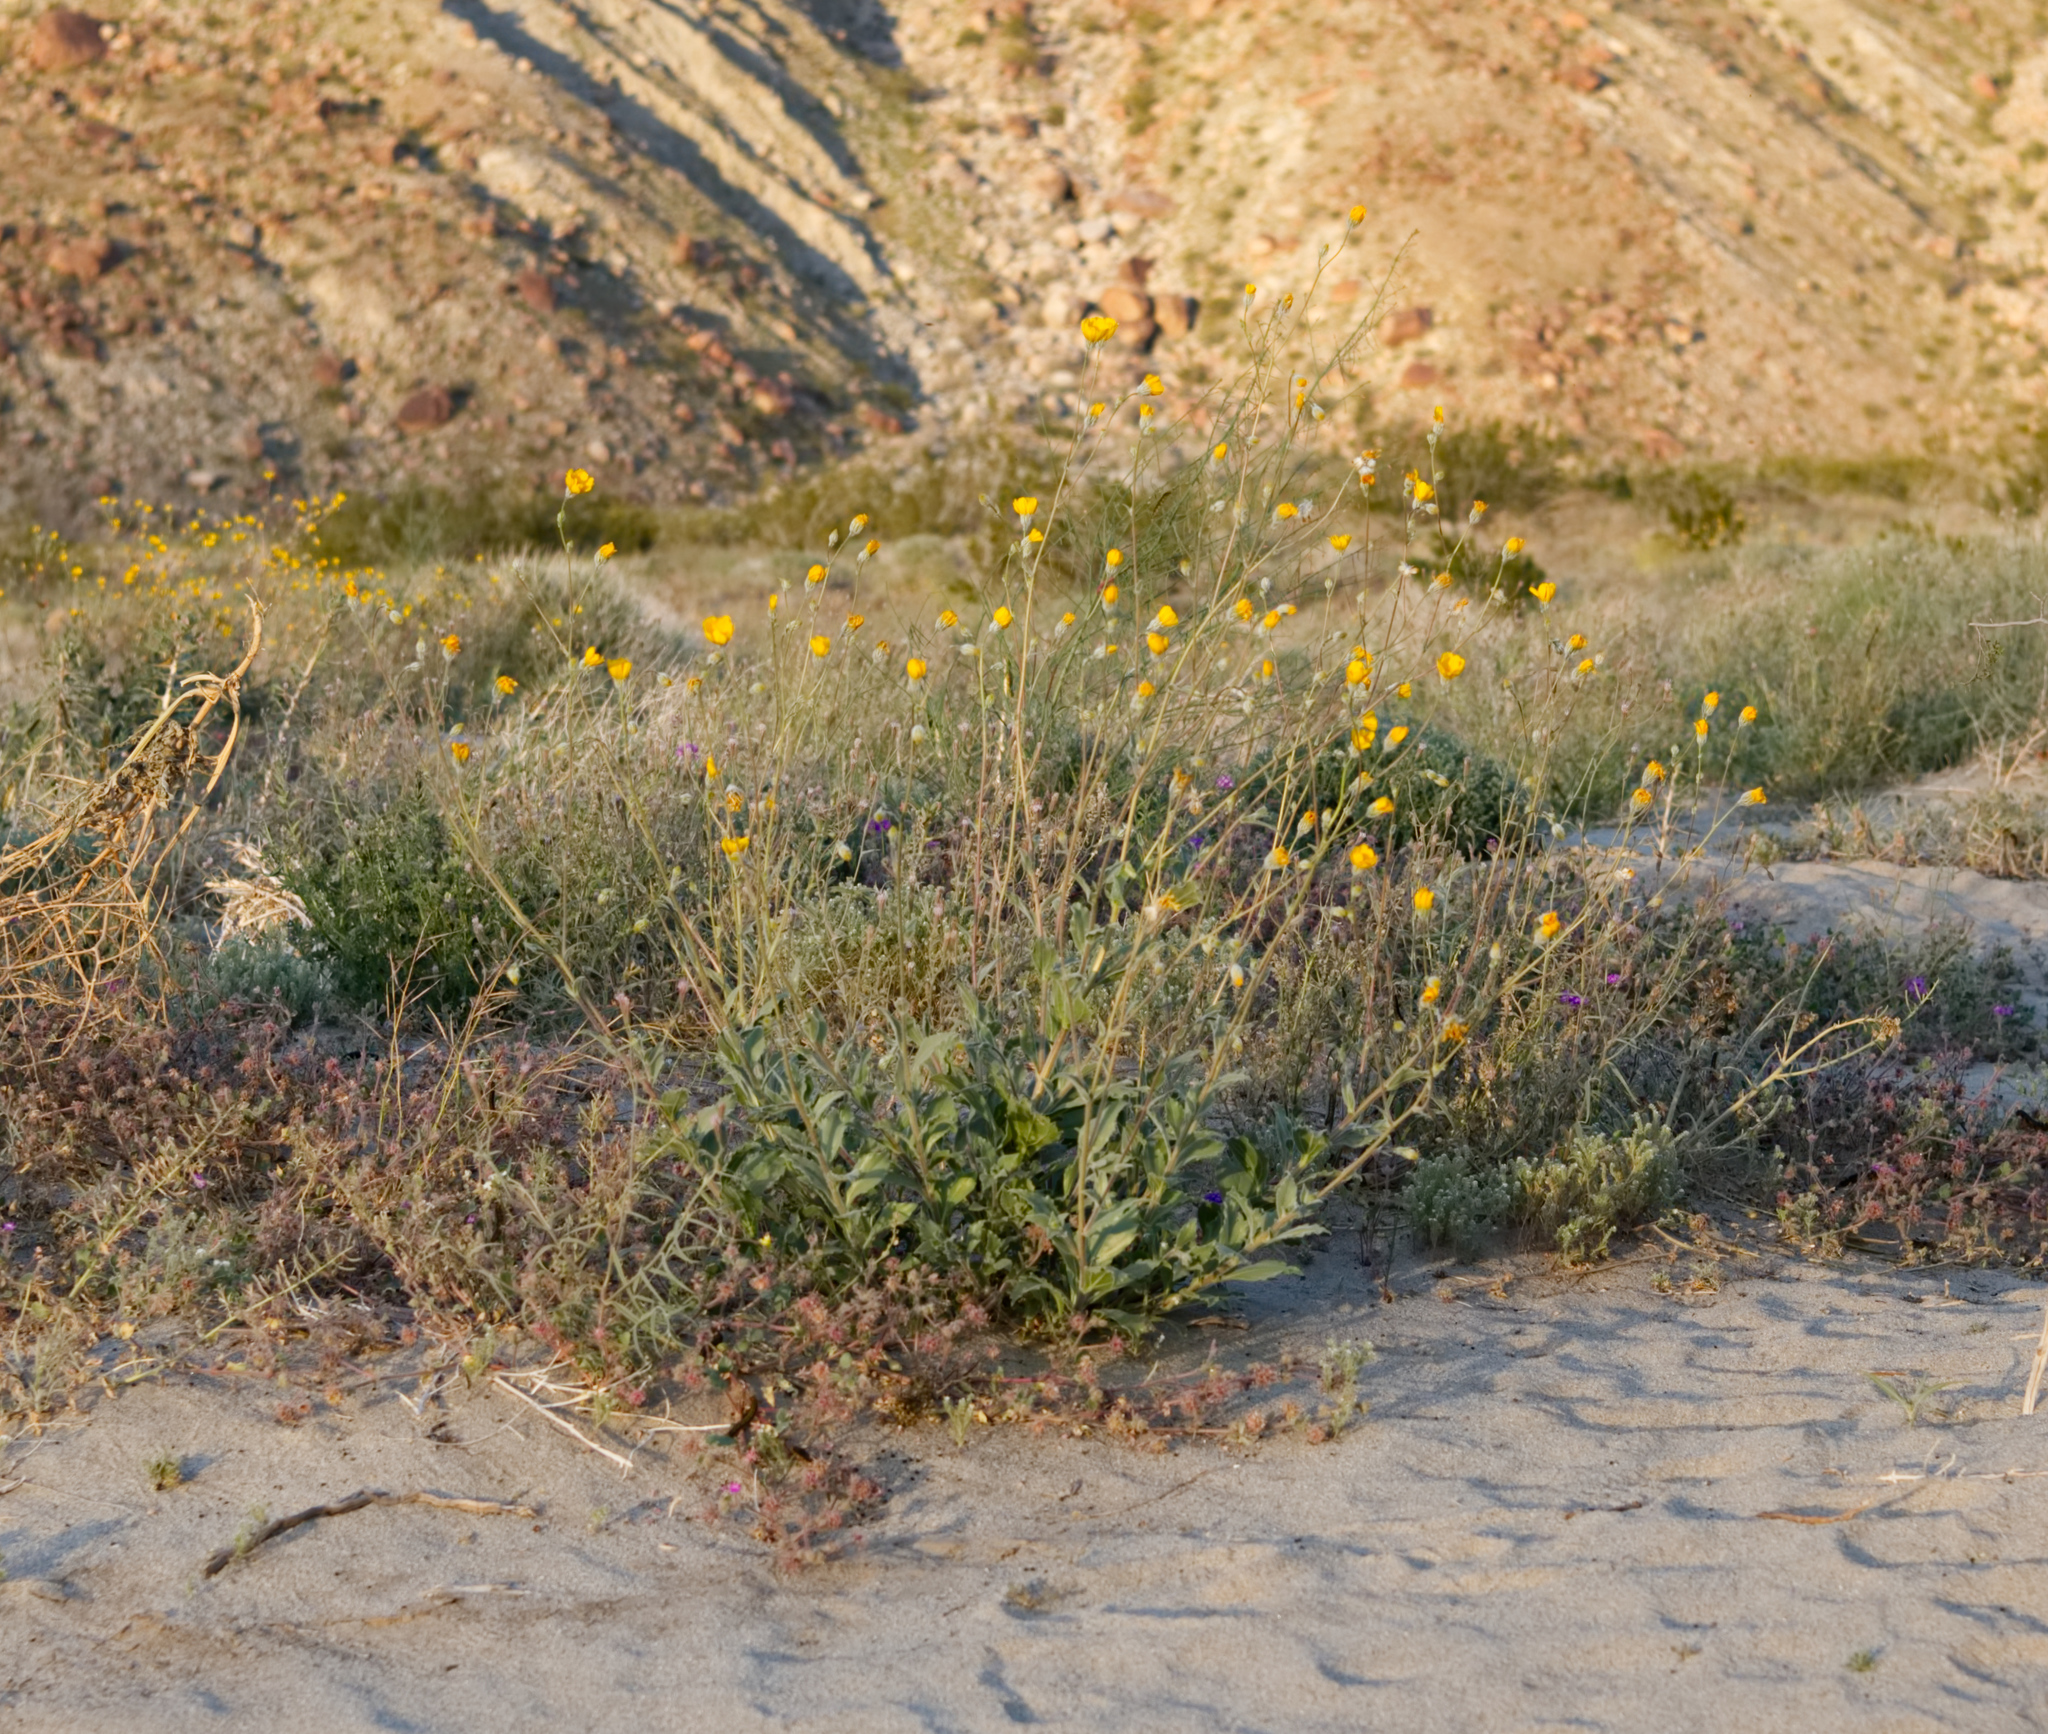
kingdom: Plantae
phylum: Tracheophyta
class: Magnoliopsida
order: Asterales
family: Asteraceae
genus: Geraea
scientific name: Geraea canescens
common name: Desert-gold
